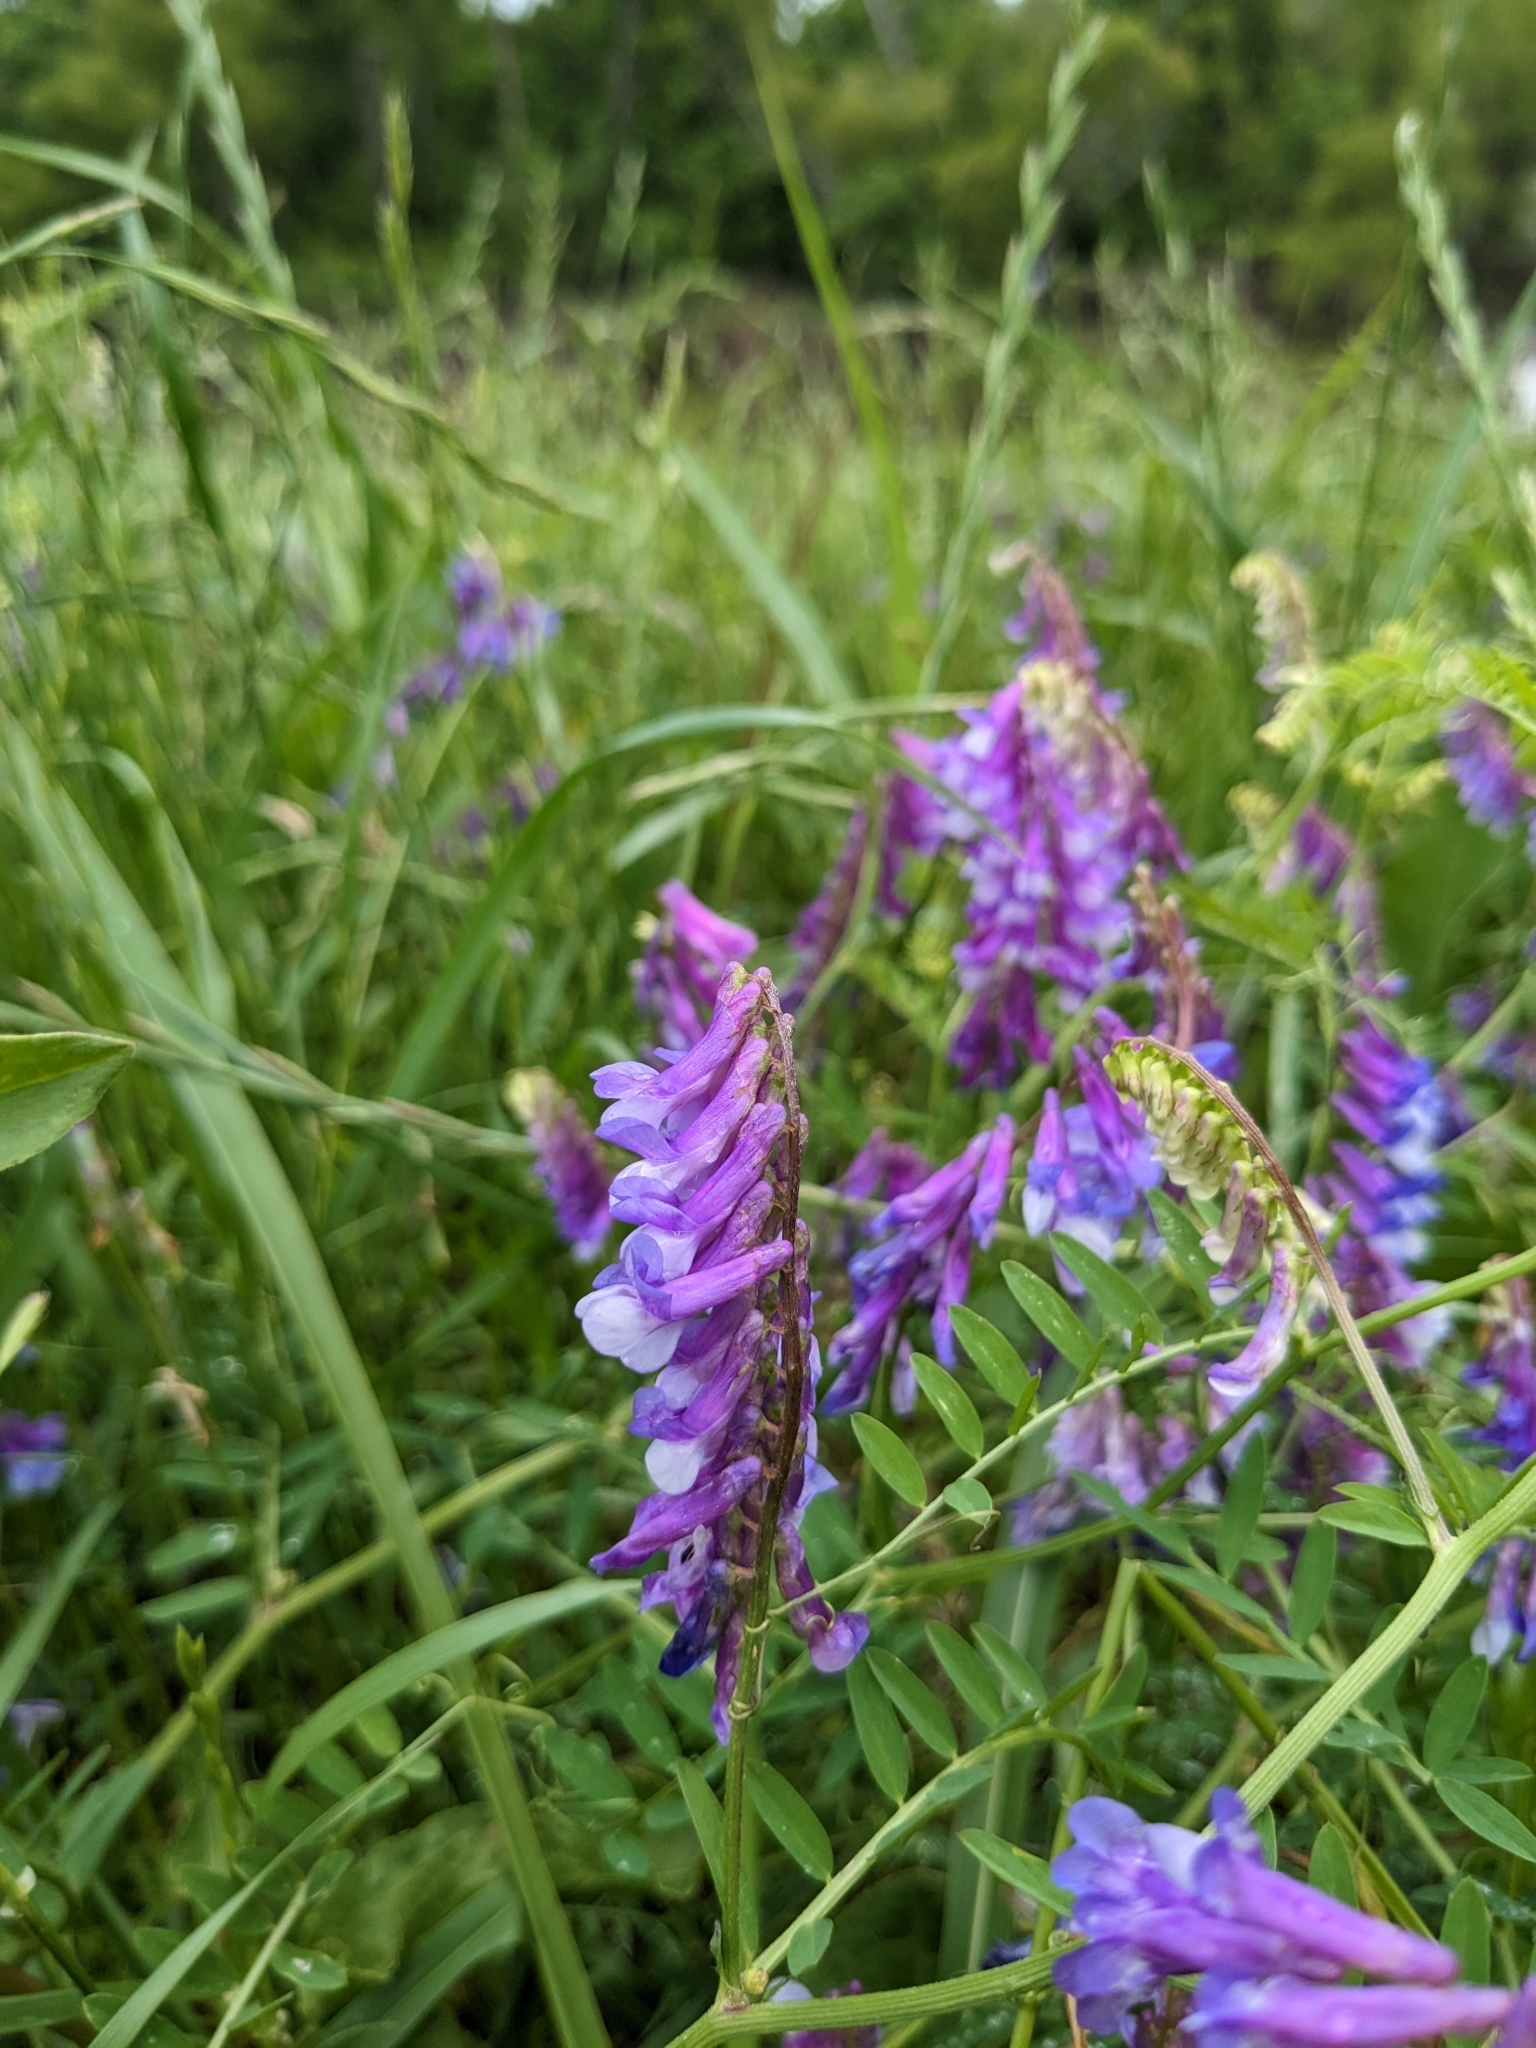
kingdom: Plantae
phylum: Tracheophyta
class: Magnoliopsida
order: Fabales
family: Fabaceae
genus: Vicia
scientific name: Vicia villosa
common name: Fodder vetch
